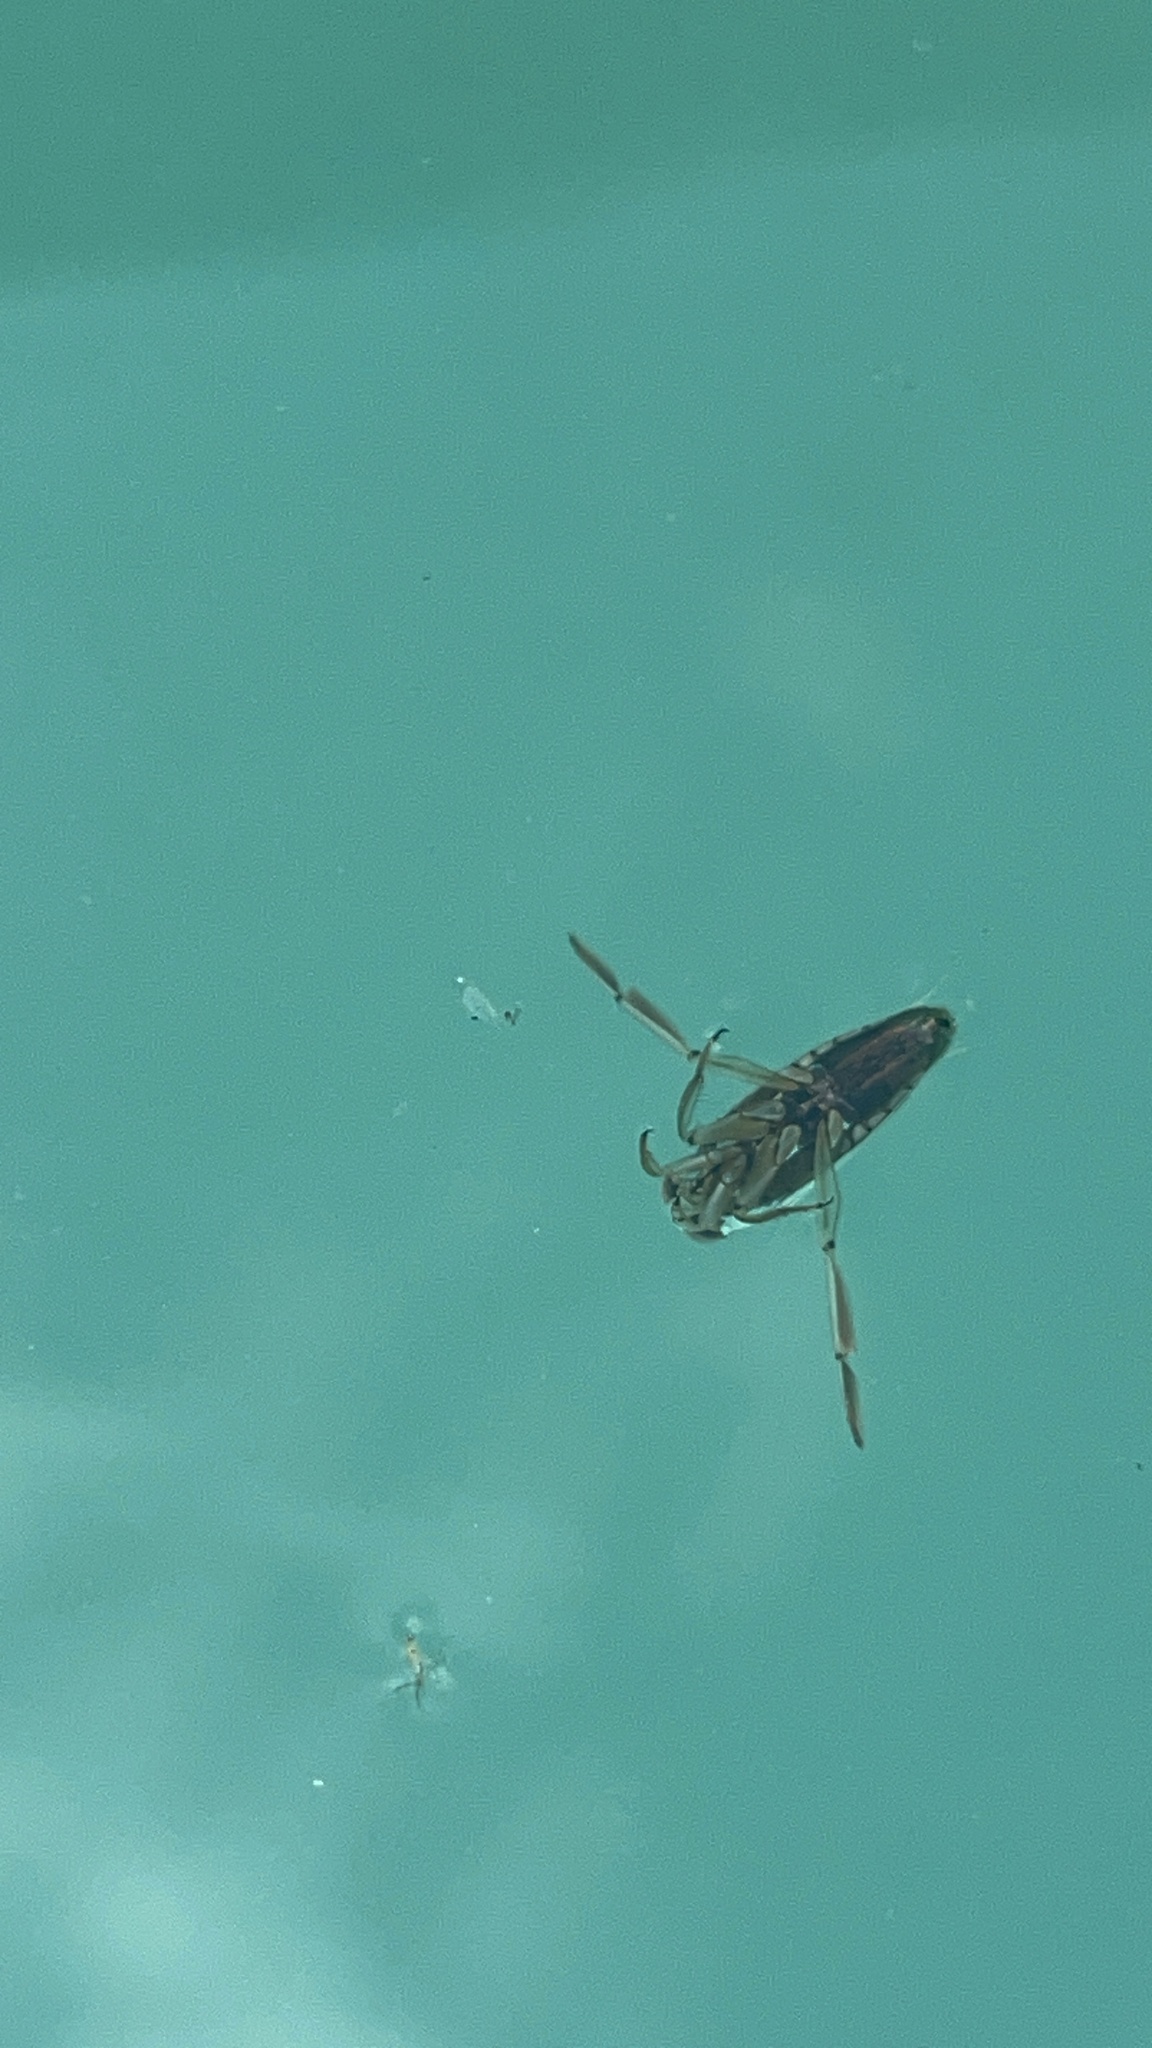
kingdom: Animalia
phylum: Arthropoda
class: Insecta
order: Hemiptera
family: Notonectidae
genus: Notonecta
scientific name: Notonecta
